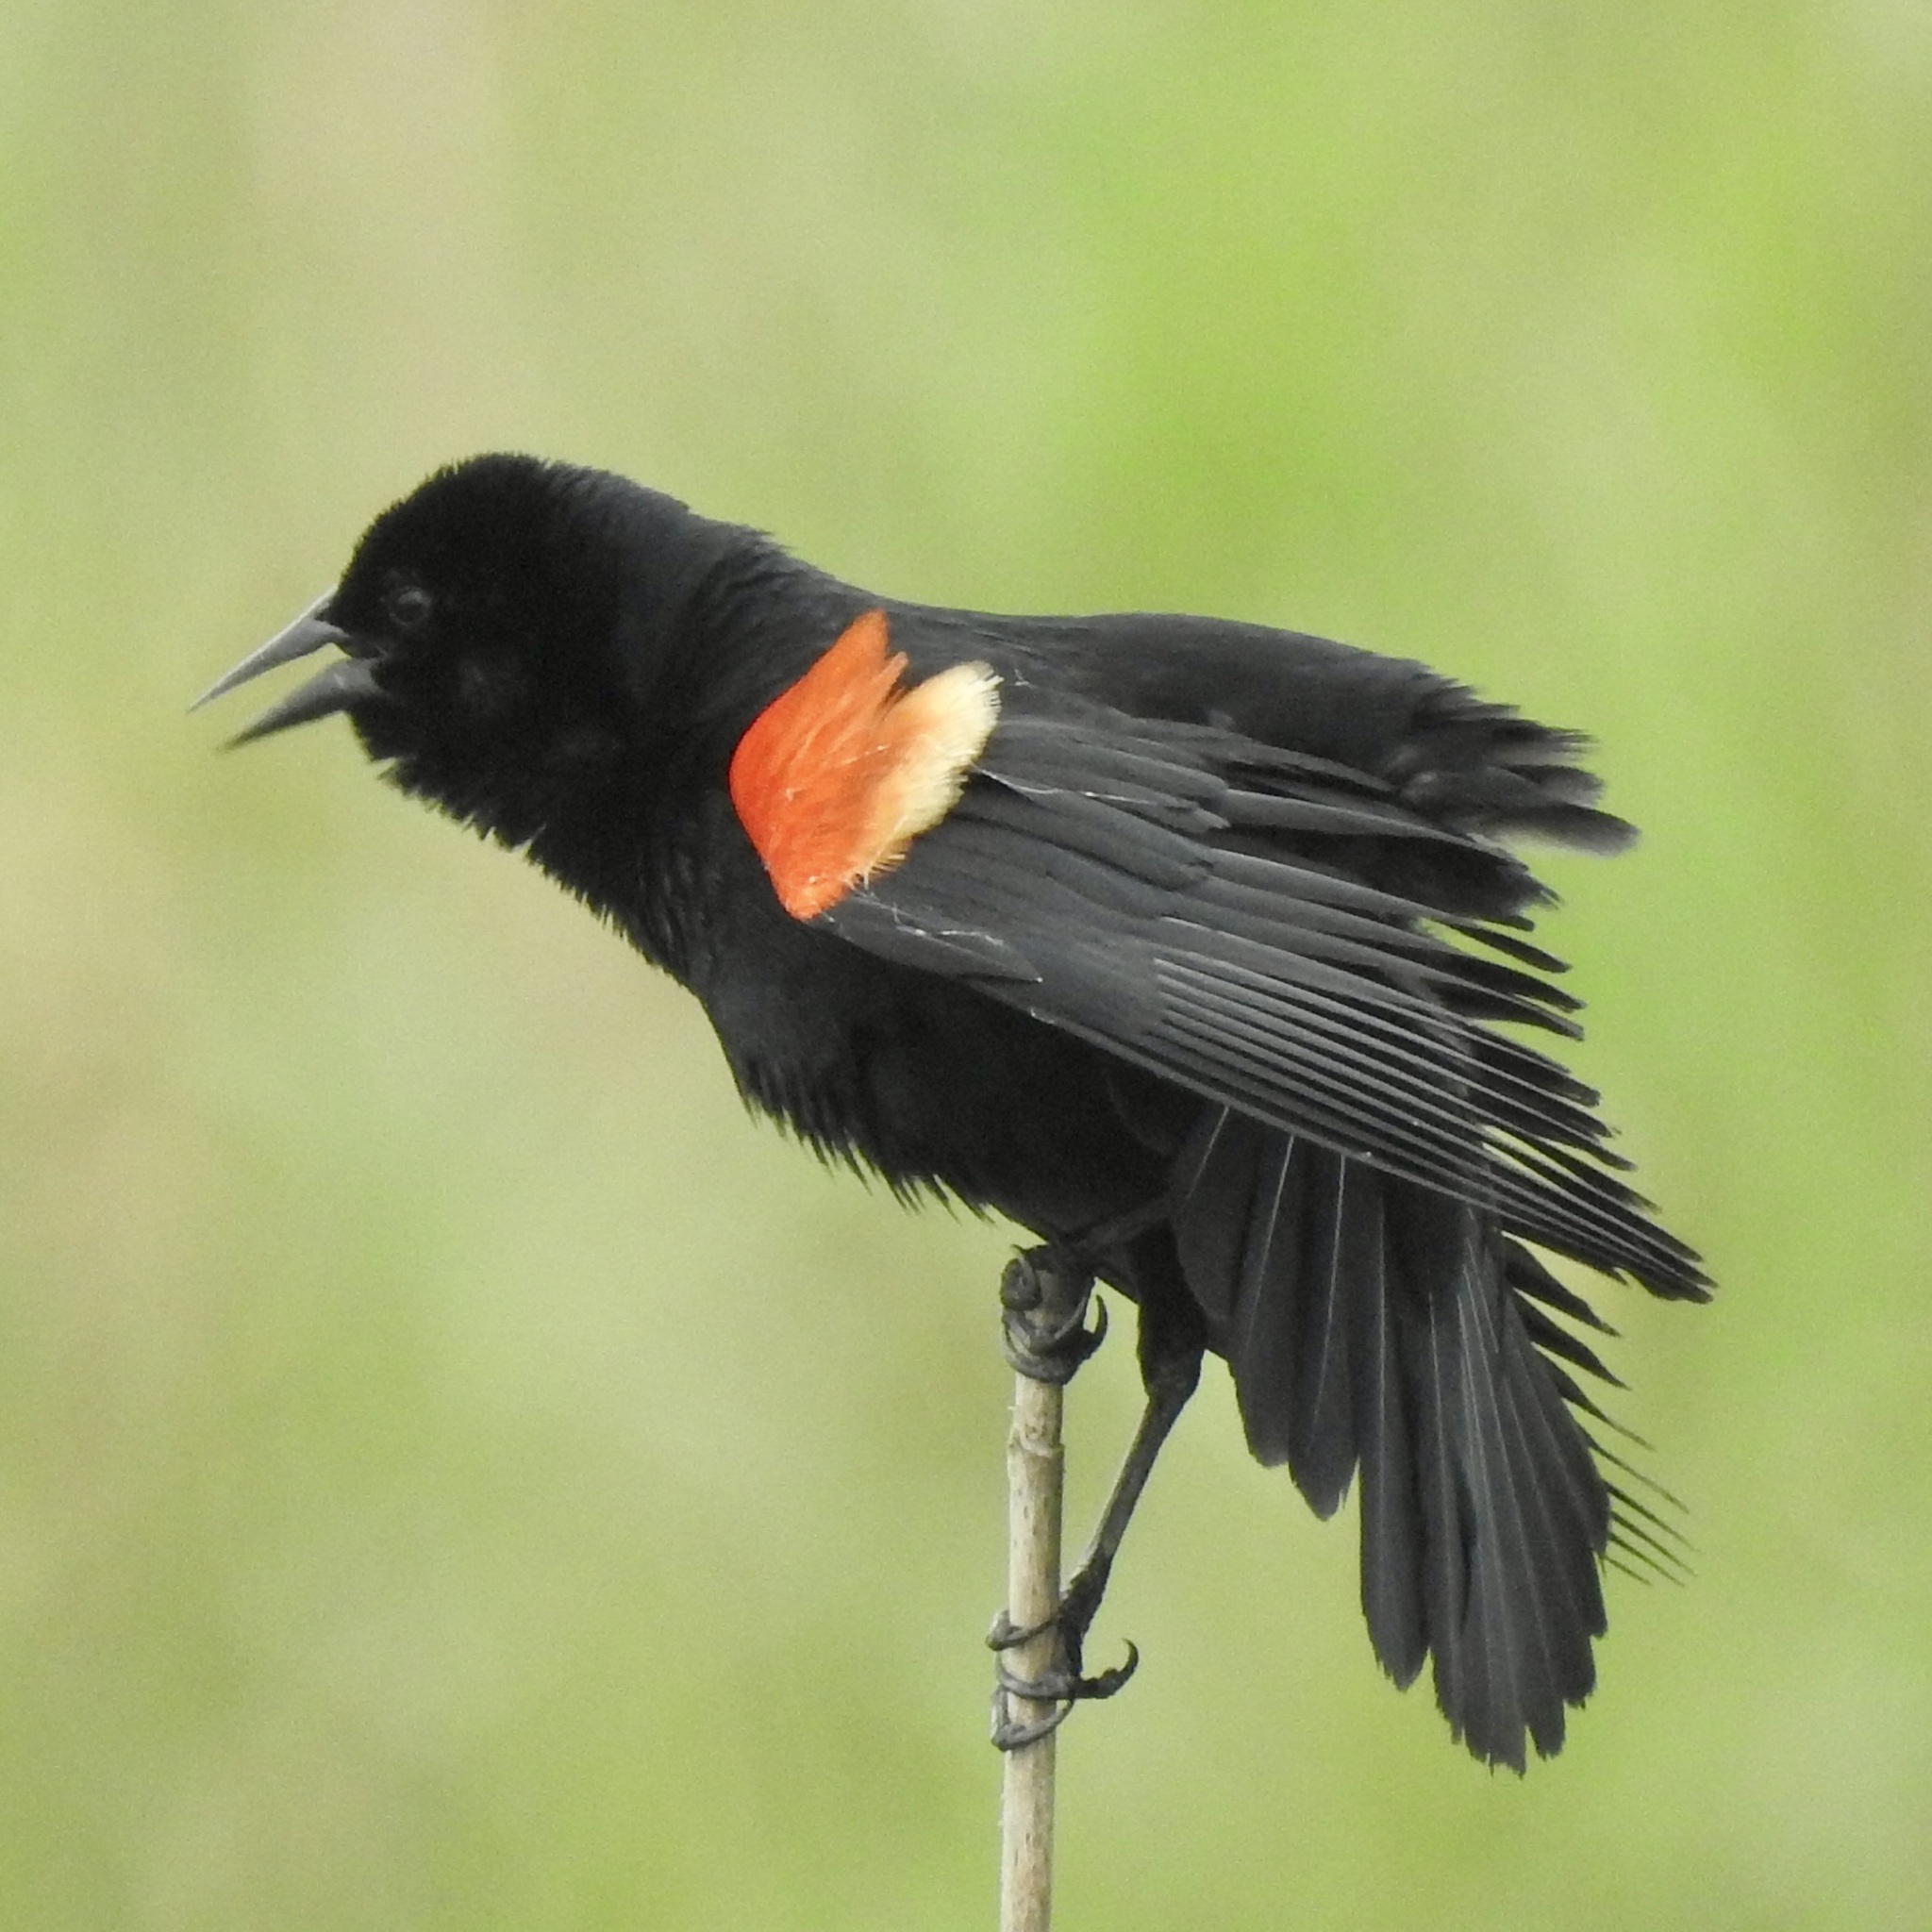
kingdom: Animalia
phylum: Chordata
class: Aves
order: Passeriformes
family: Icteridae
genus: Agelaius
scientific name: Agelaius phoeniceus
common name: Red-winged blackbird
